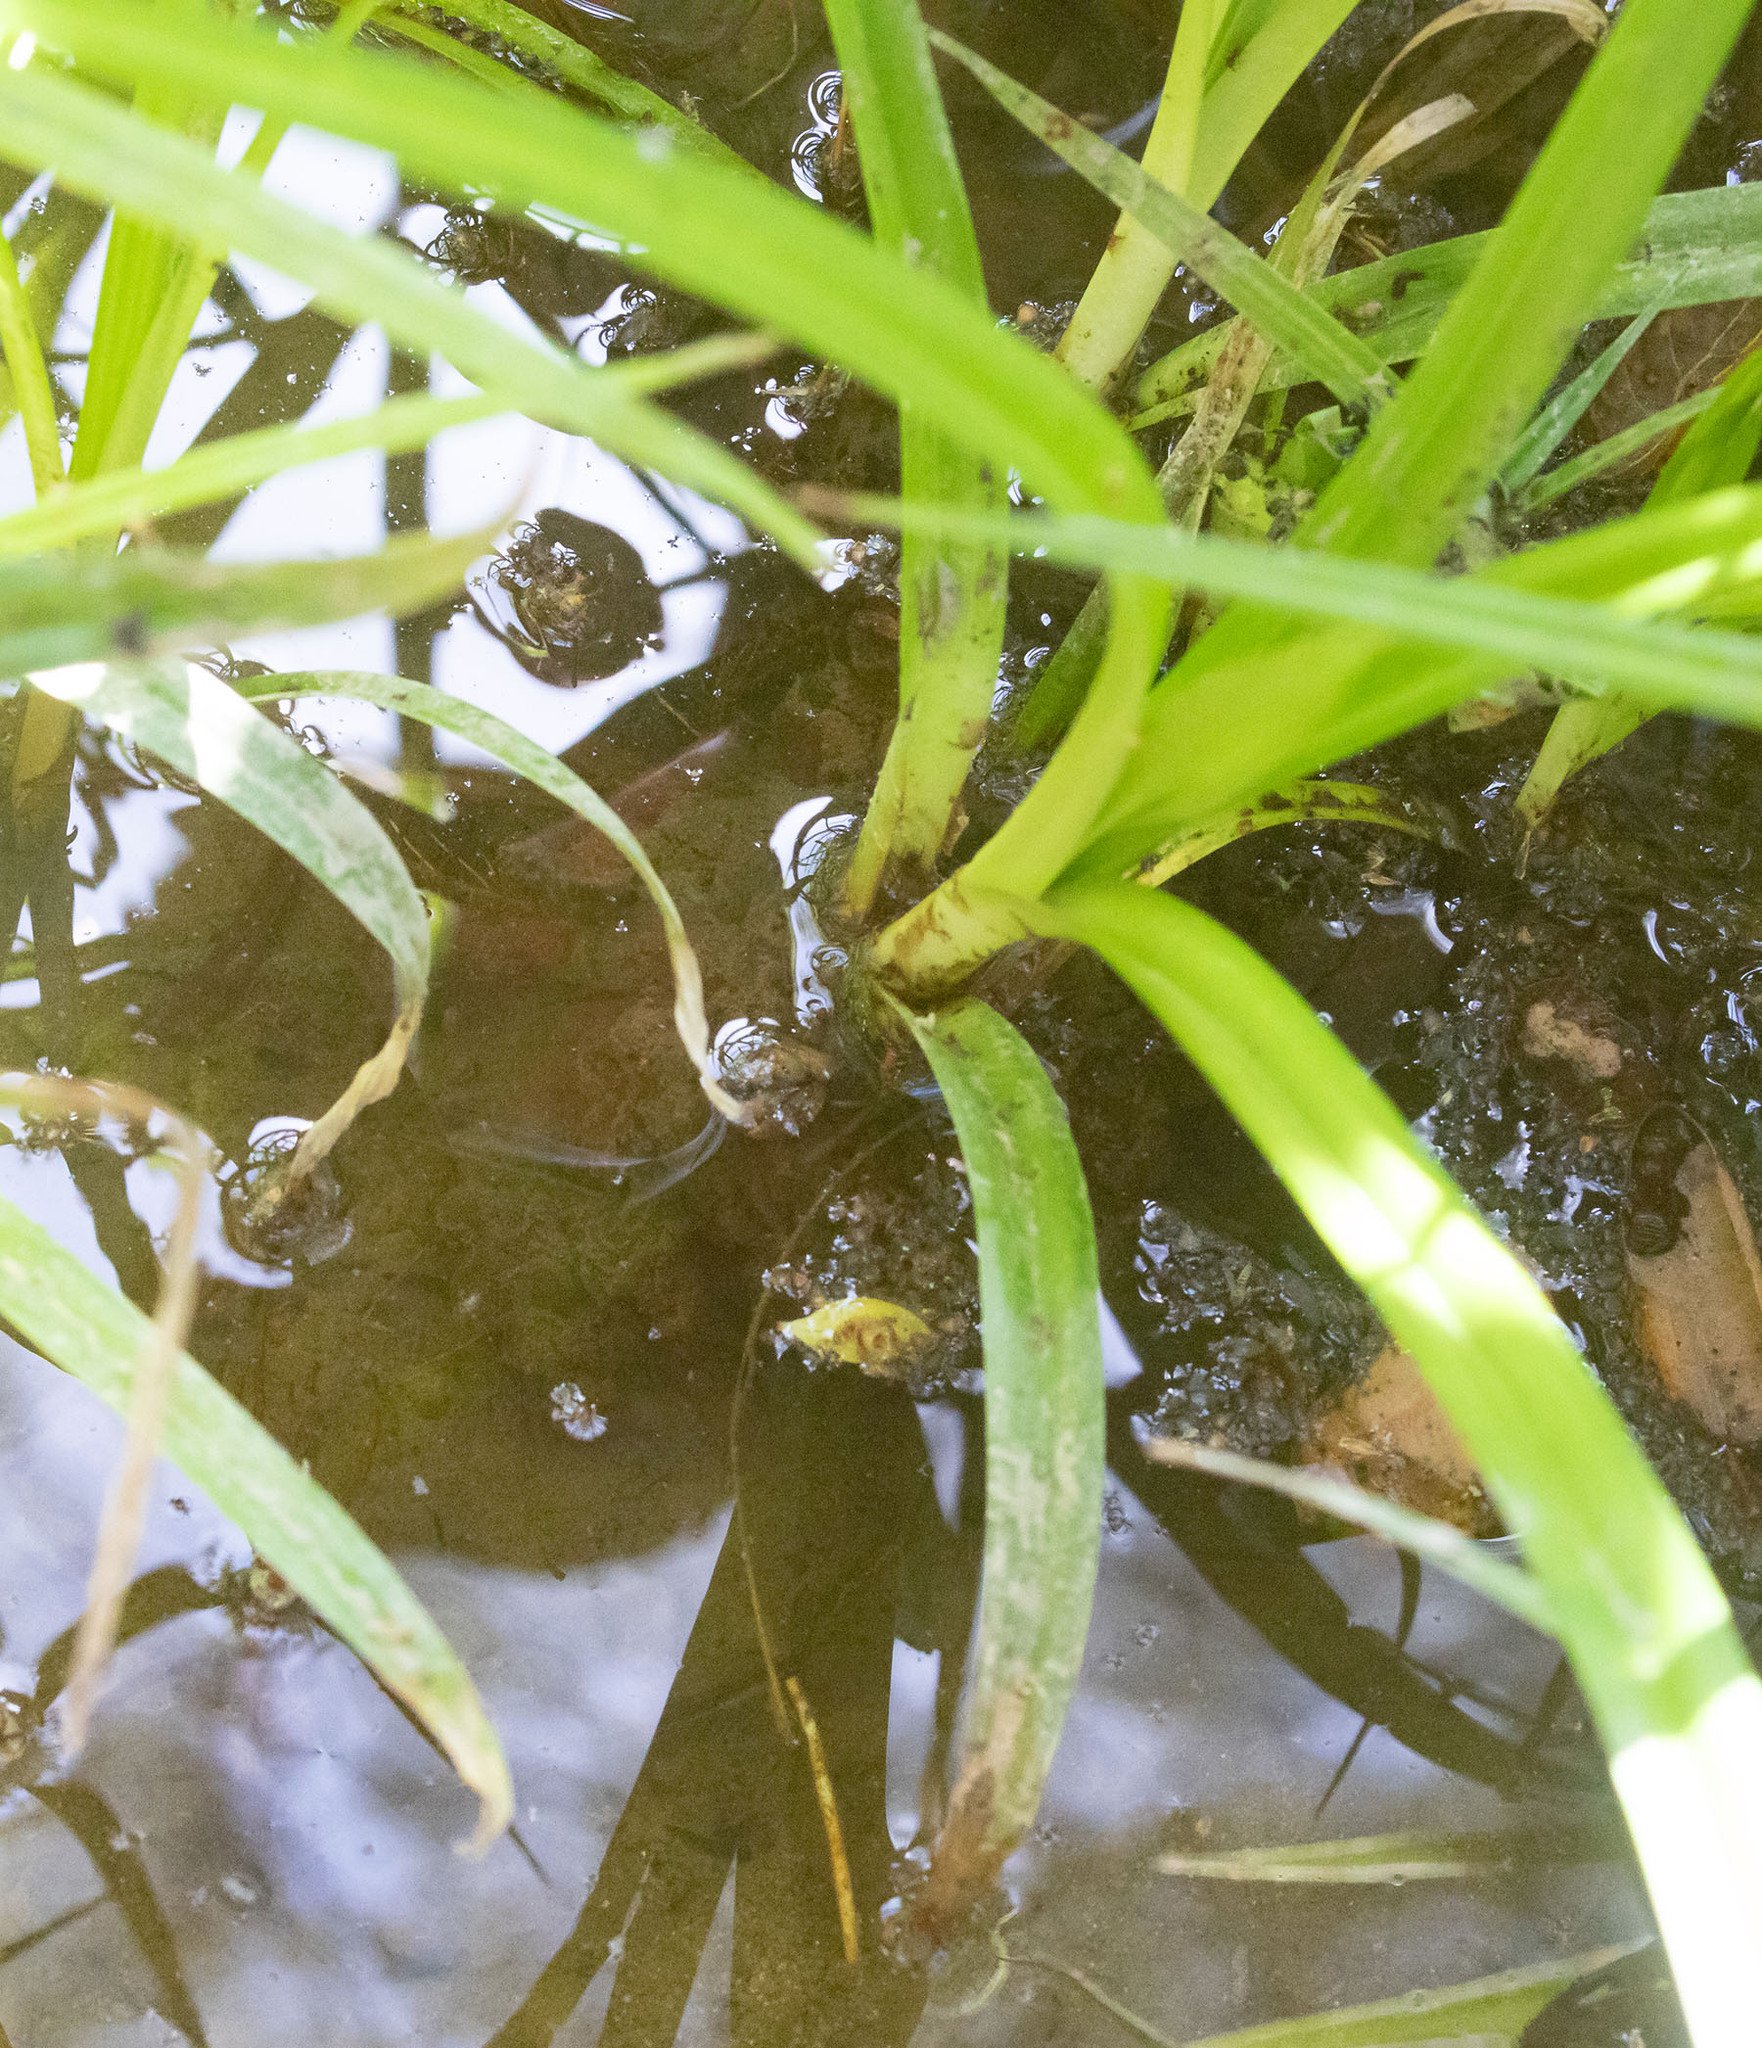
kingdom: Animalia
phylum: Chordata
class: Amphibia
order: Anura
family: Ranidae
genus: Rana
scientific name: Rana draytonii
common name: California red-legged frog
